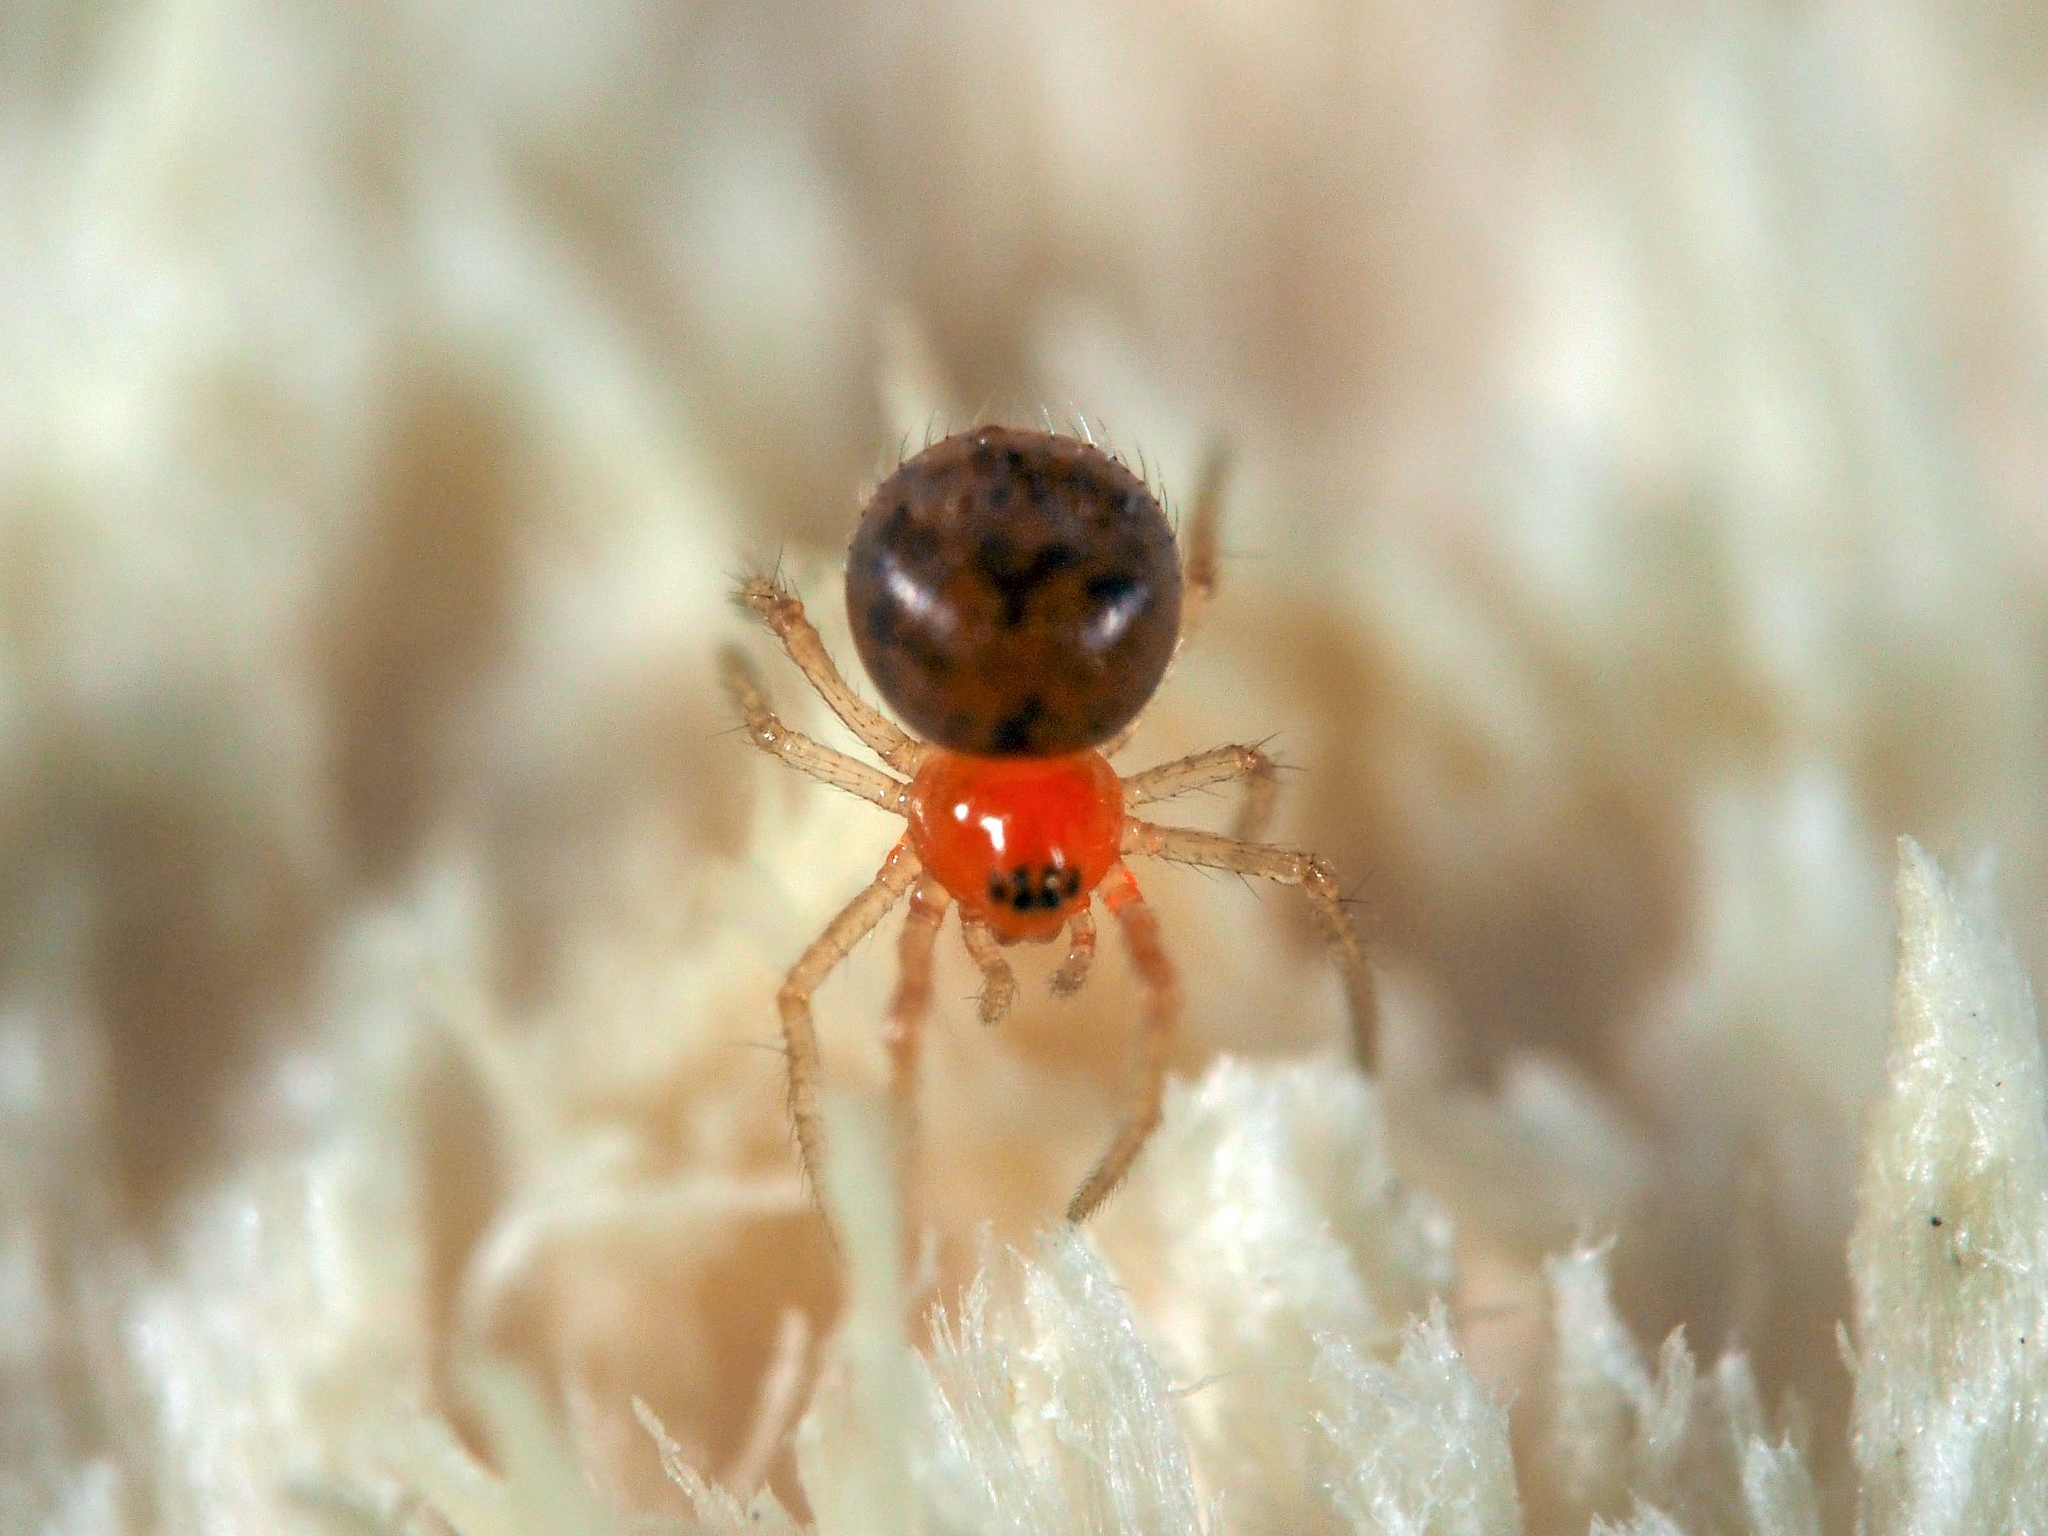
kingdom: Animalia
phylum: Arthropoda
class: Arachnida
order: Araneae
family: Theridiidae
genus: Ruborridion
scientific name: Ruborridion musivum
